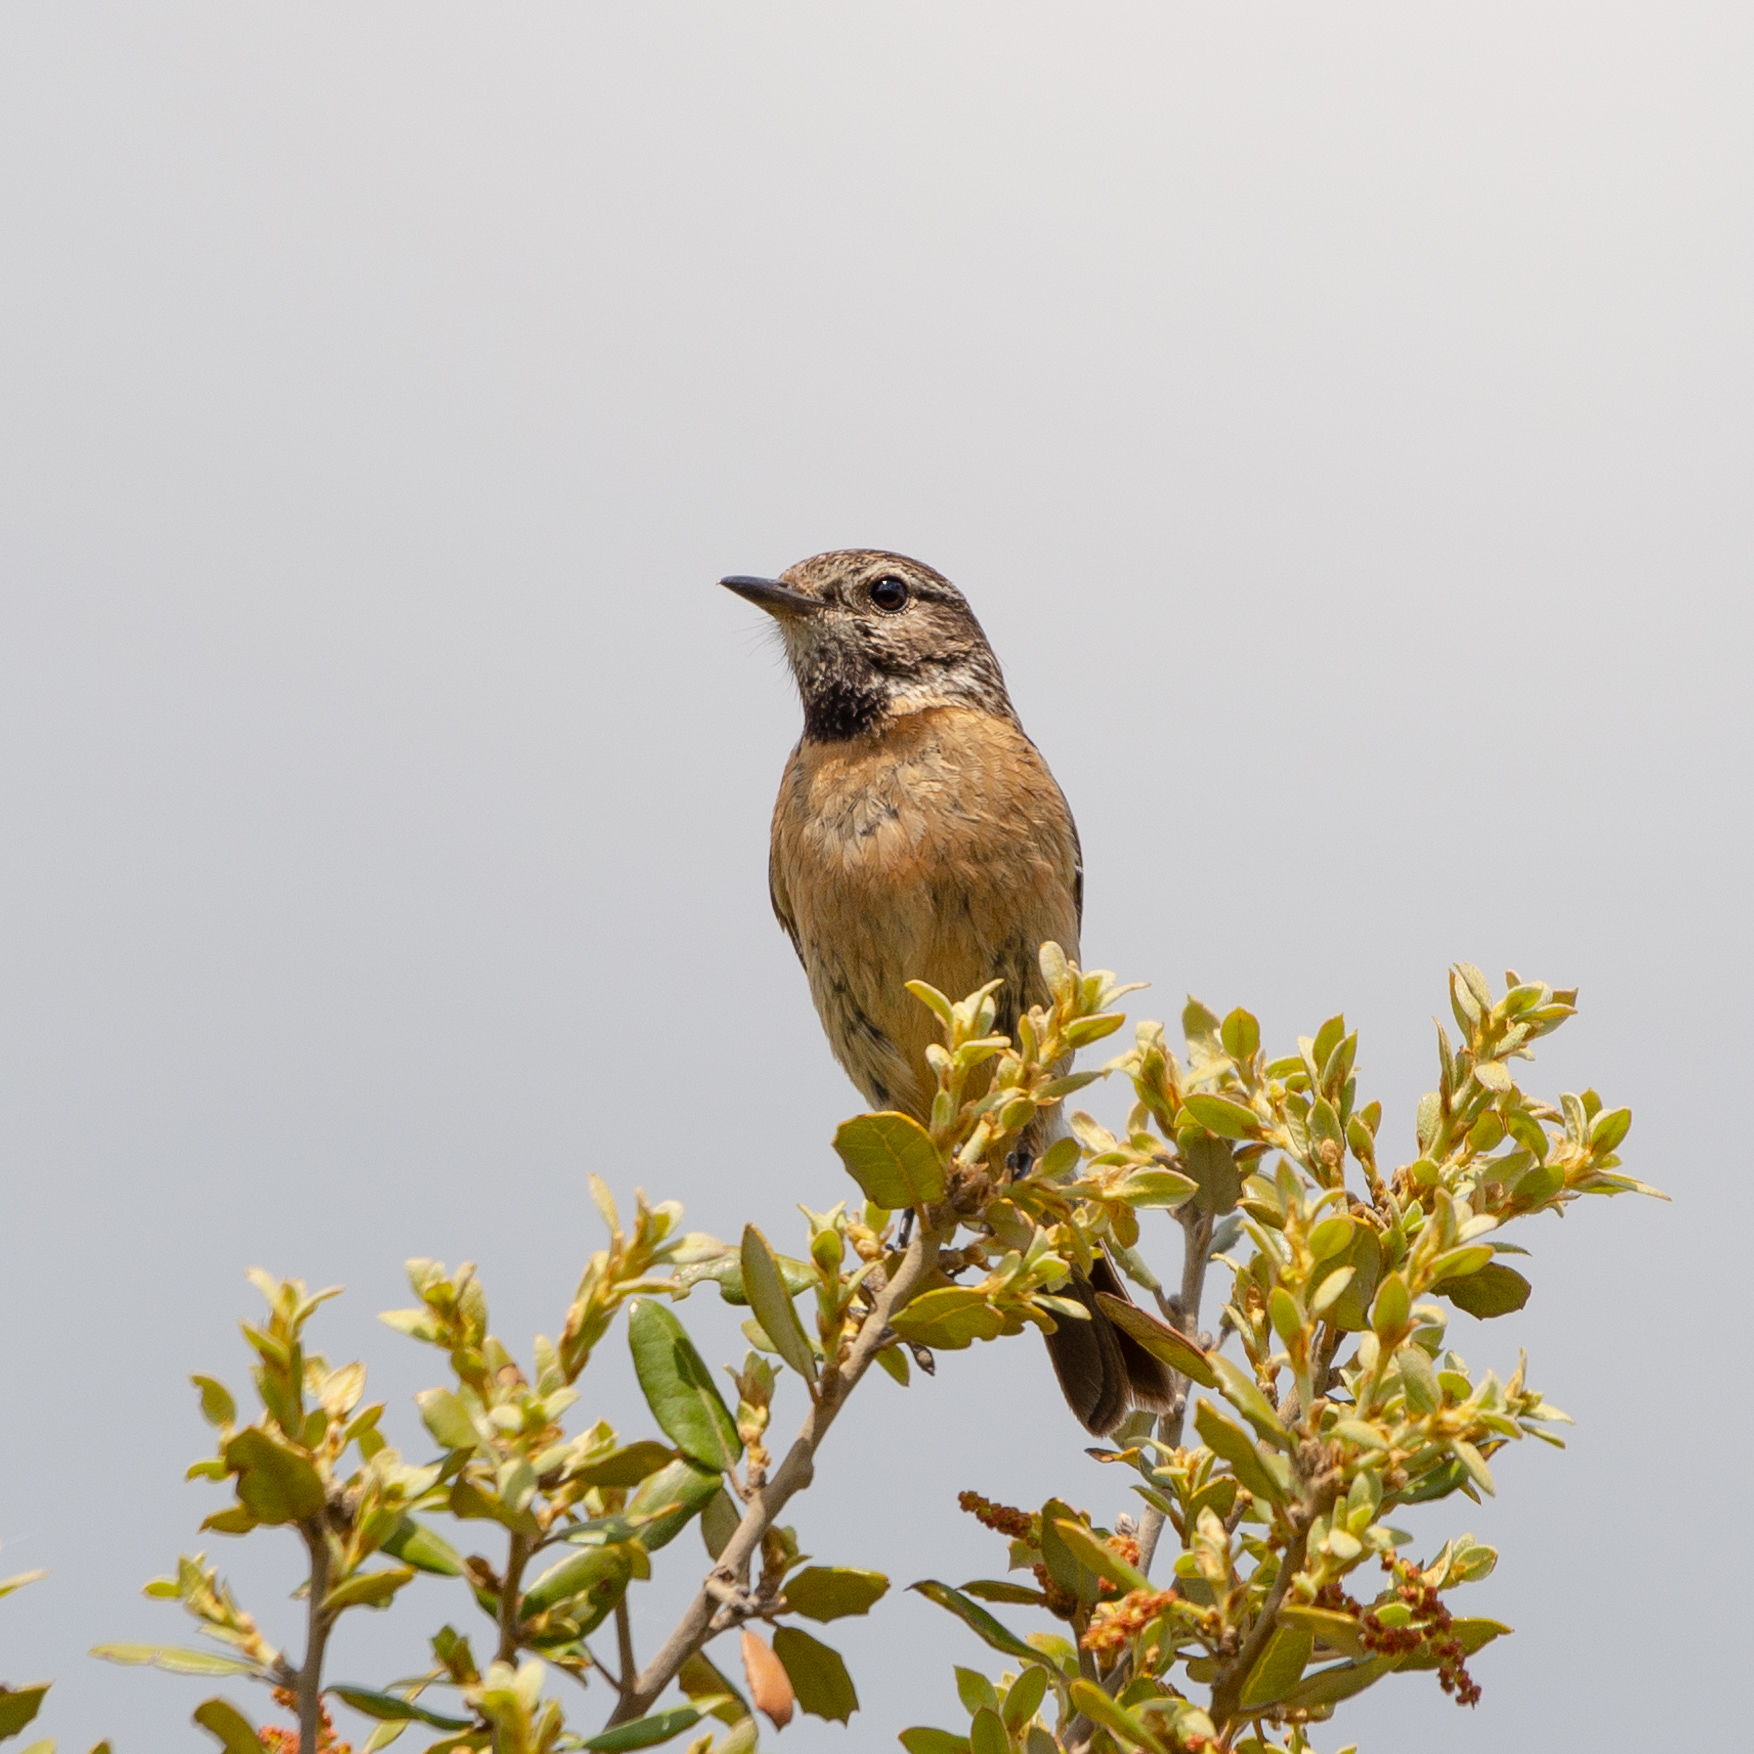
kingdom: Animalia
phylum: Chordata
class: Aves
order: Passeriformes
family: Muscicapidae
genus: Saxicola
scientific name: Saxicola rubicola
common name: European stonechat
